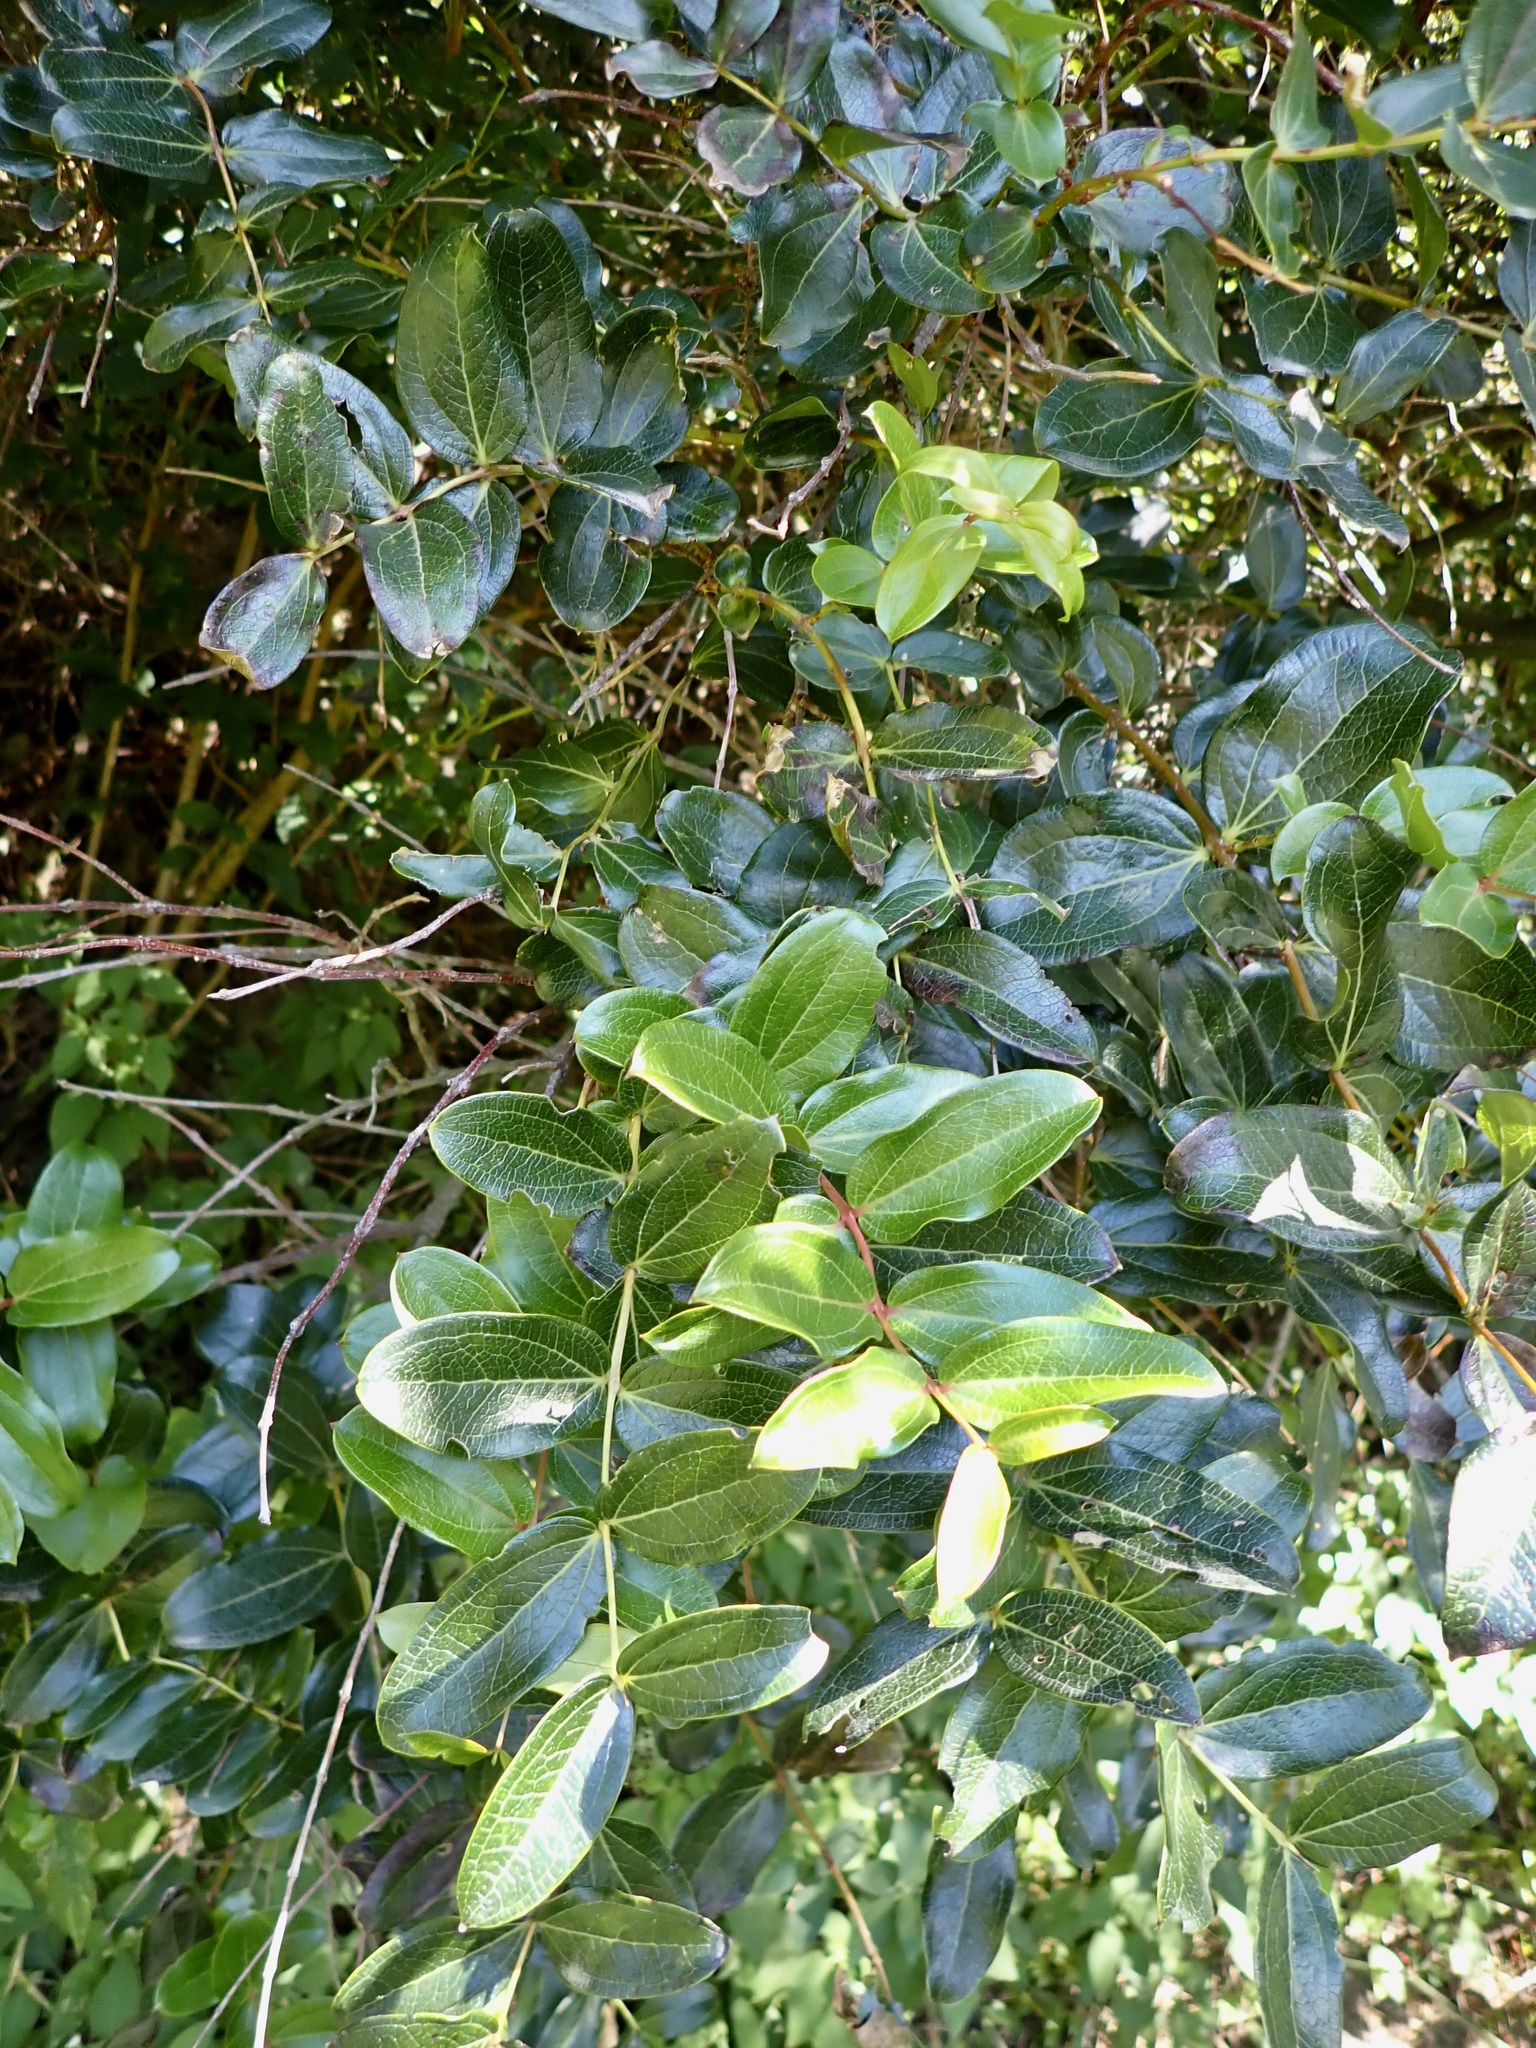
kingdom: Plantae
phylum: Tracheophyta
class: Magnoliopsida
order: Cucurbitales
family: Coriariaceae
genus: Coriaria
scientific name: Coriaria arborea
